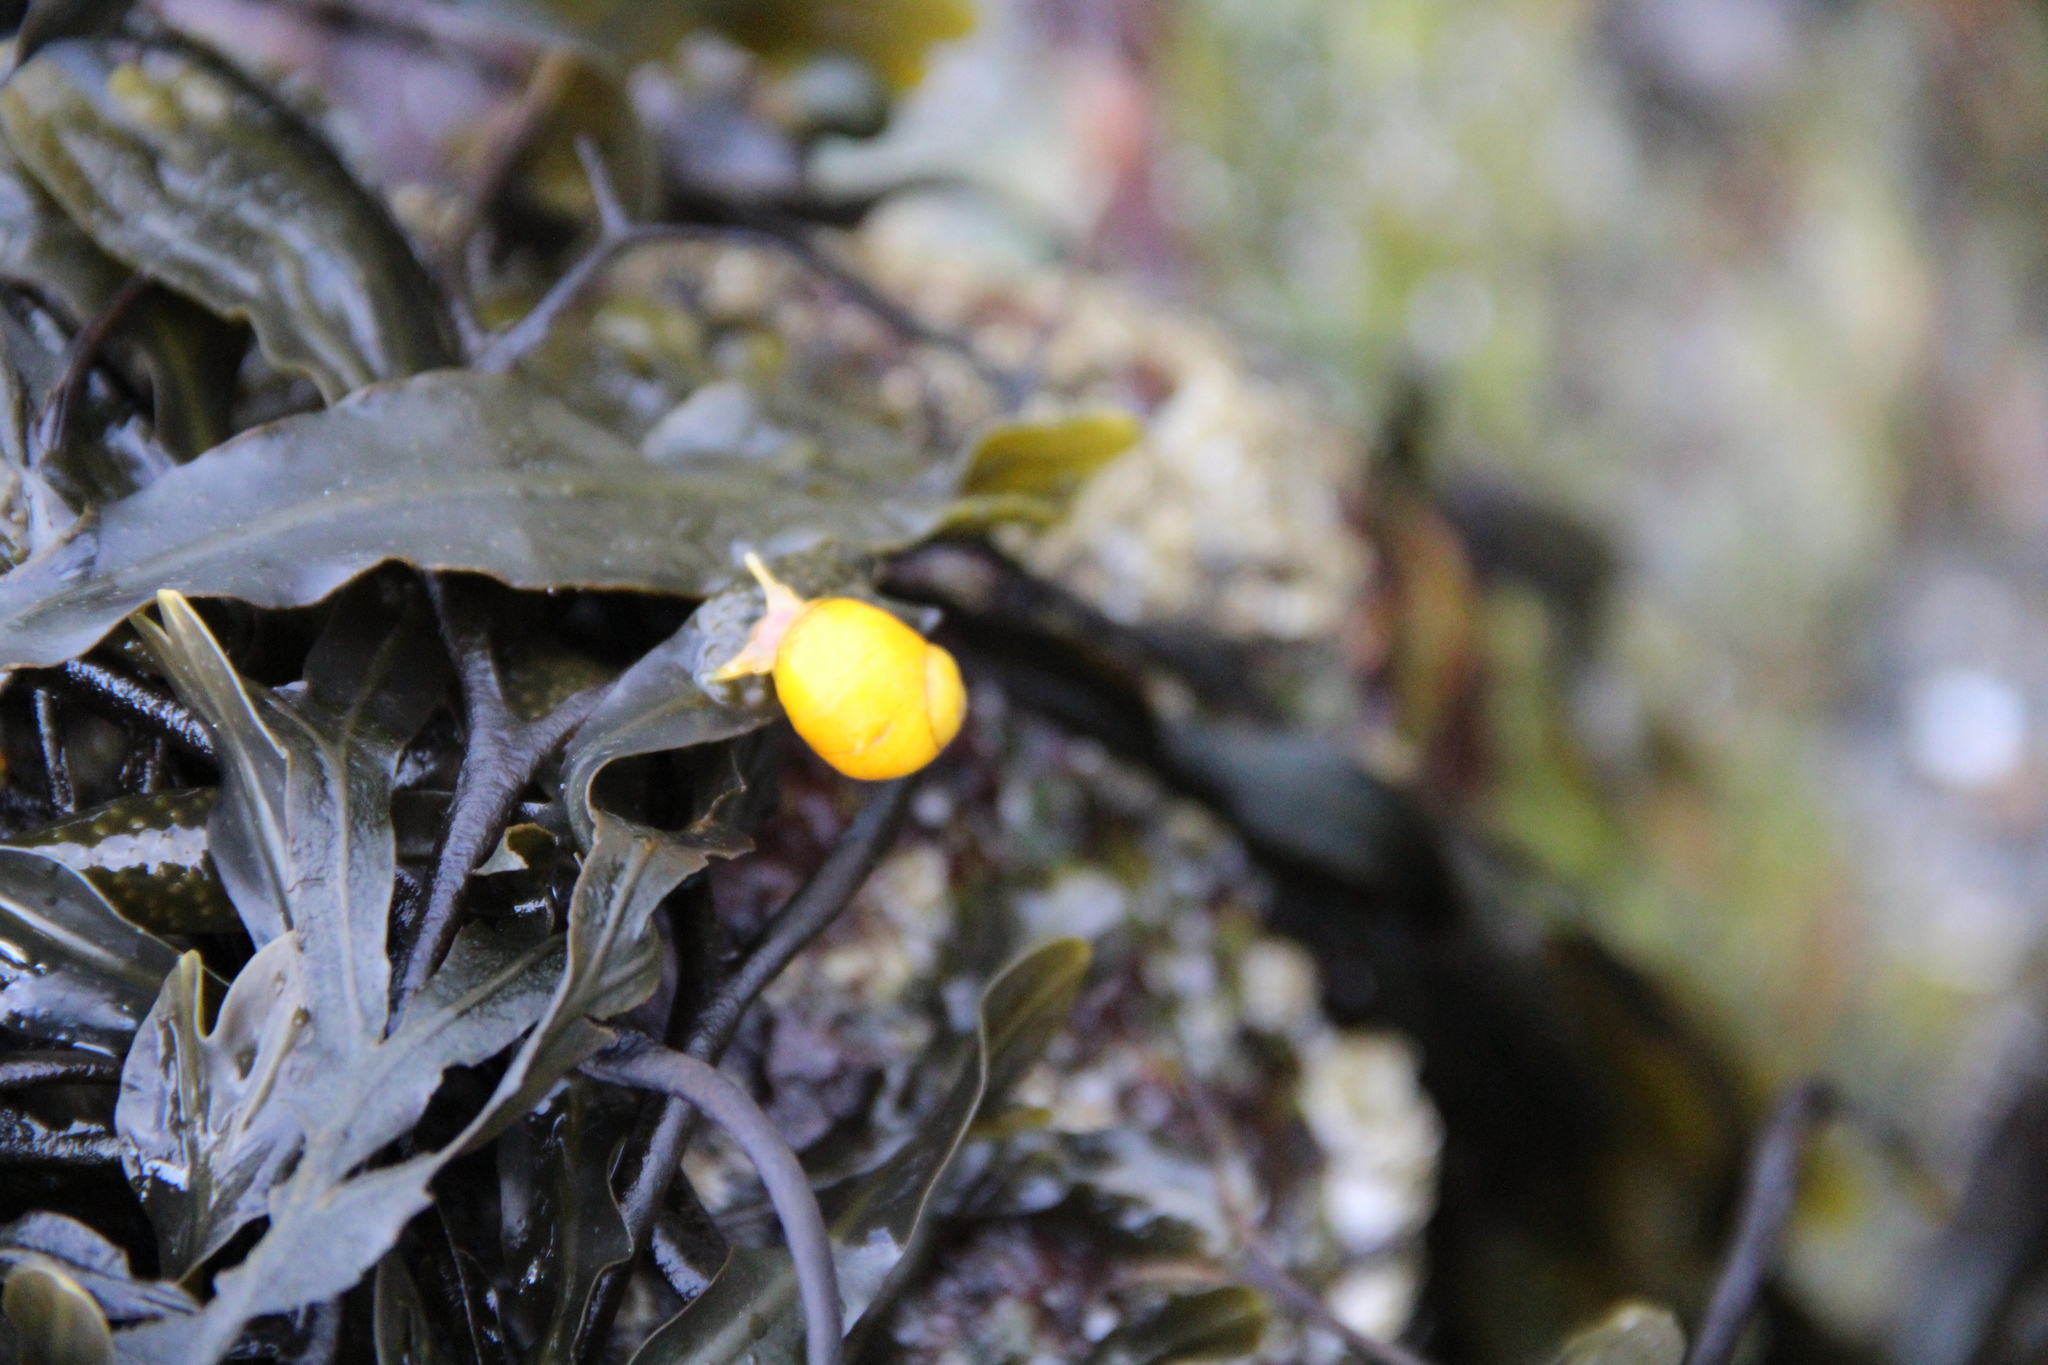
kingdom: Animalia
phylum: Mollusca
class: Gastropoda
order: Littorinimorpha
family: Littorinidae
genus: Littorina
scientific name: Littorina obtusata
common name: Flat periwinkle
